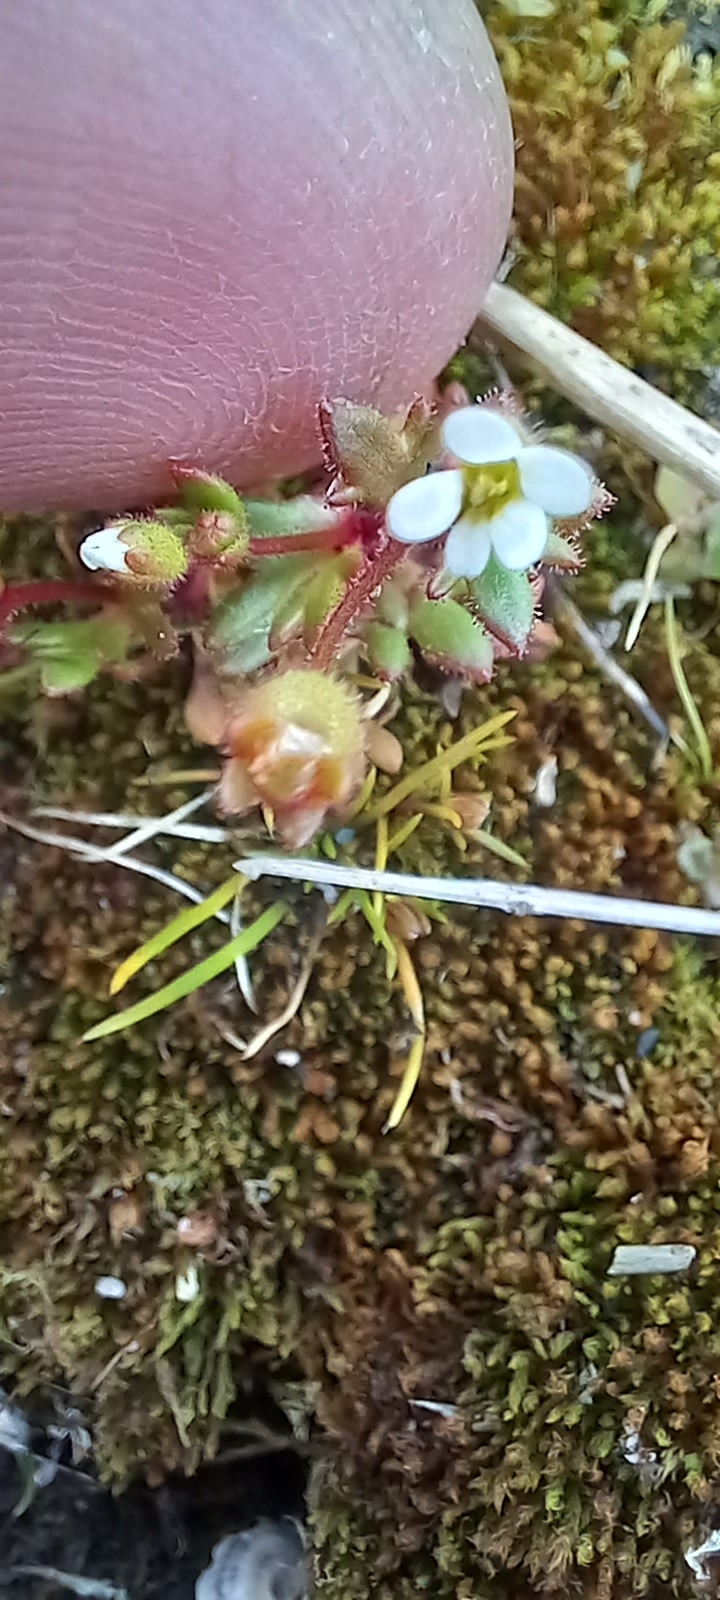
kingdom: Plantae
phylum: Tracheophyta
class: Magnoliopsida
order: Saxifragales
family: Saxifragaceae
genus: Saxifraga
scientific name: Saxifraga tridactylites
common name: Rue-leaved saxifrage
